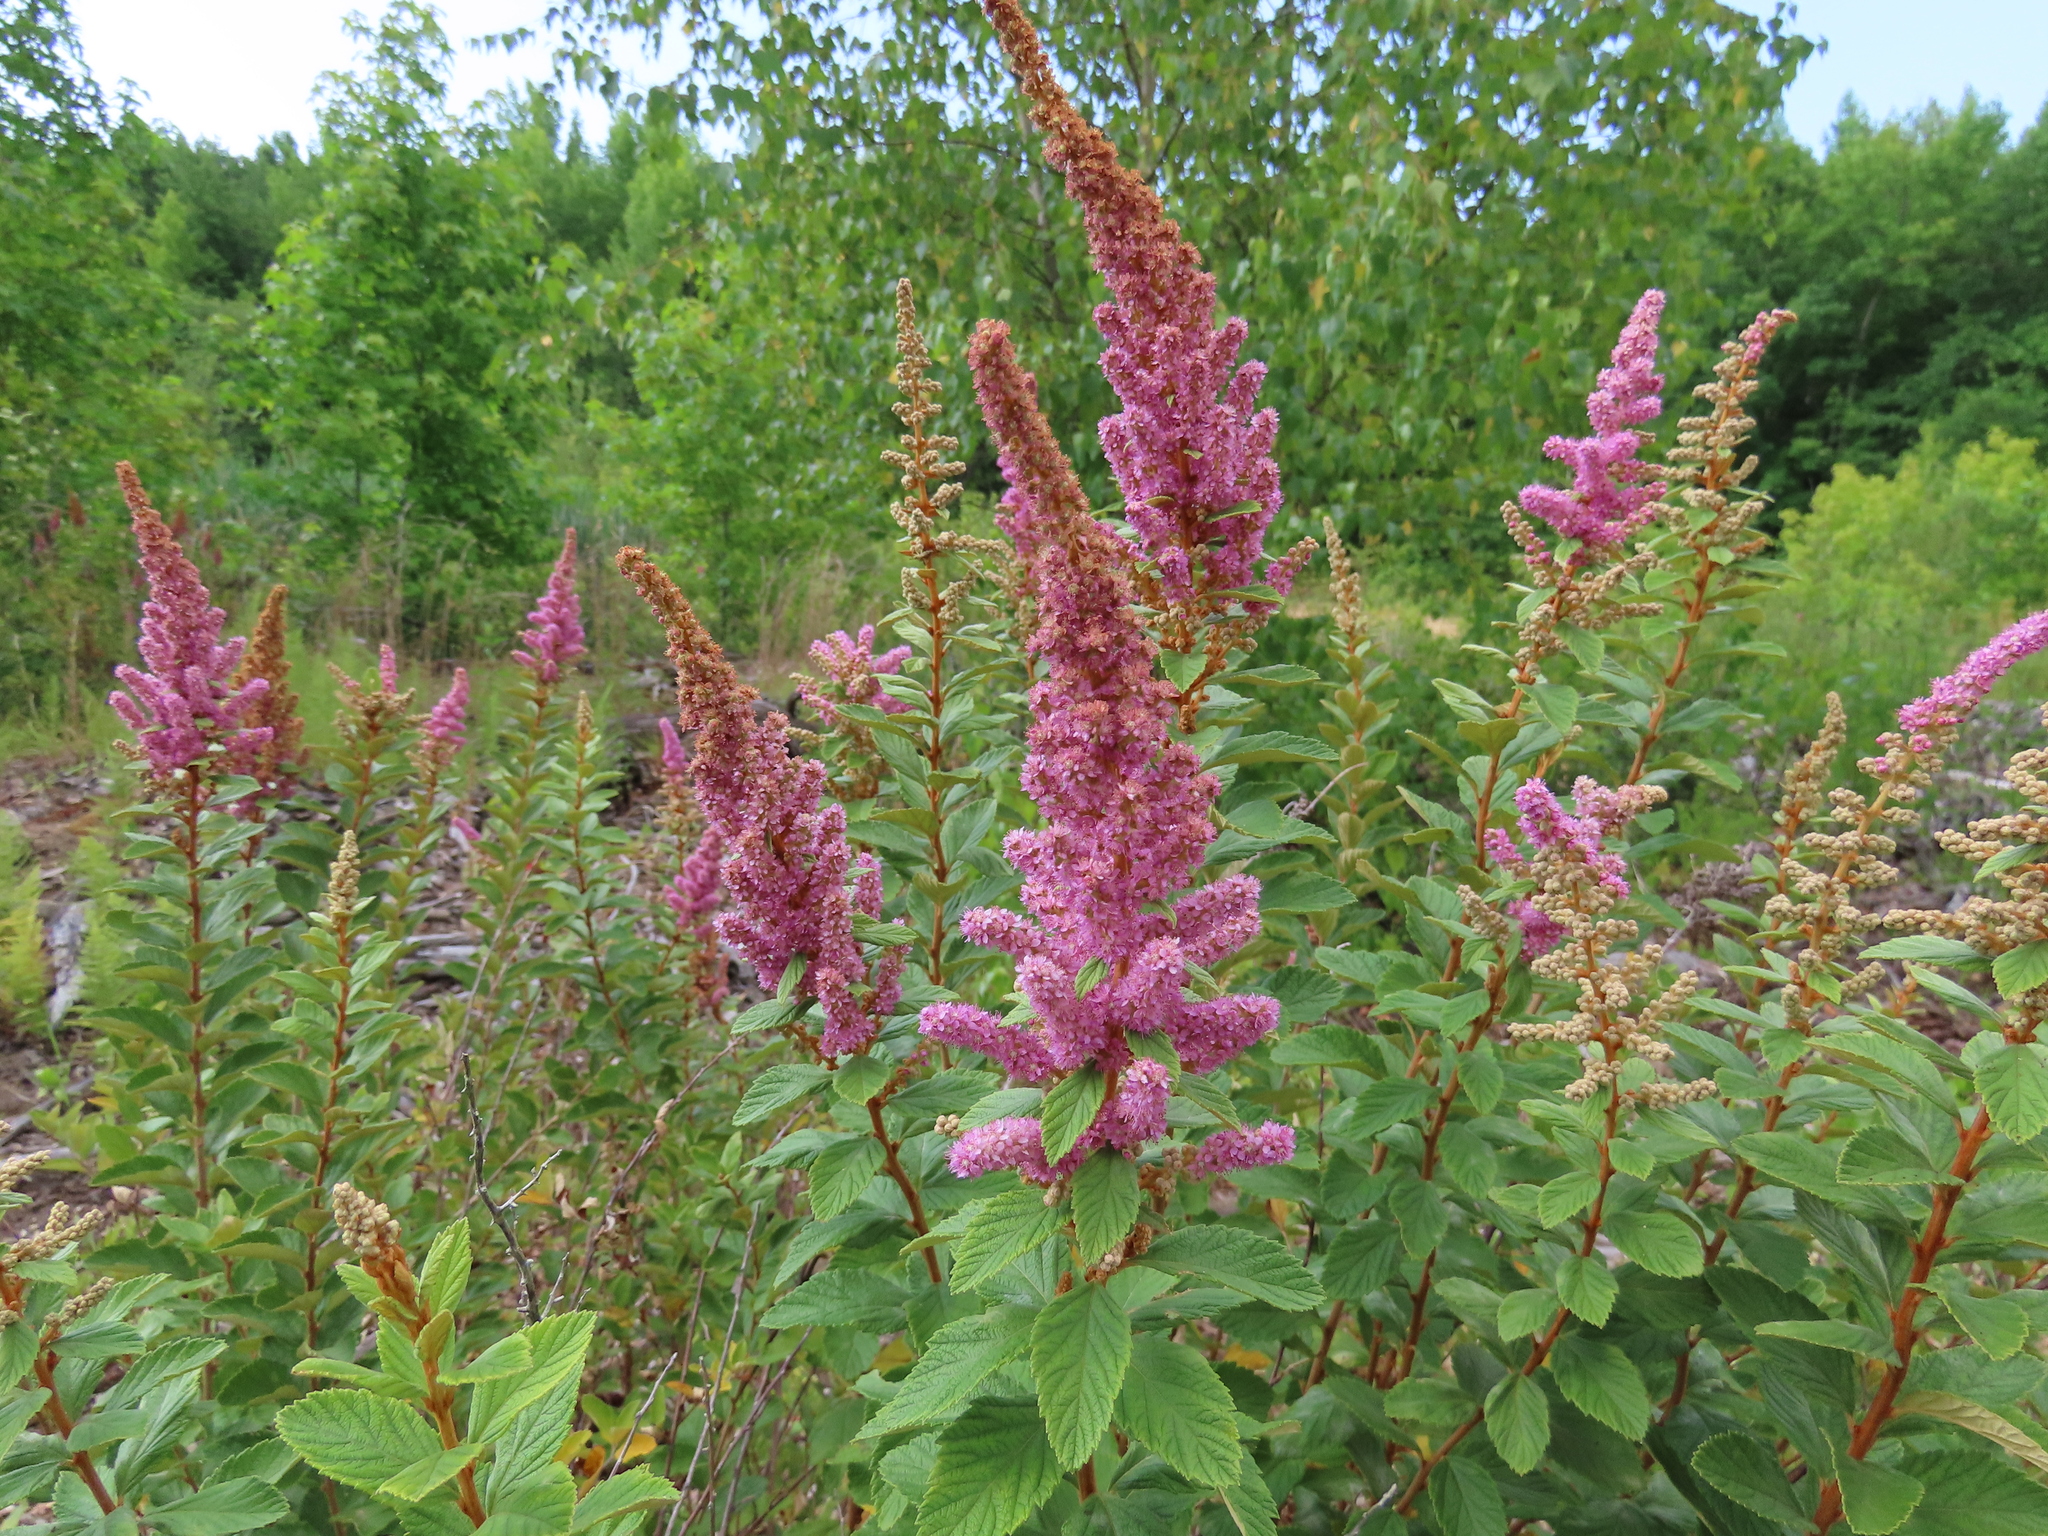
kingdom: Plantae
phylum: Tracheophyta
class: Magnoliopsida
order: Rosales
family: Rosaceae
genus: Spiraea
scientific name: Spiraea tomentosa
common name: Hardhack
